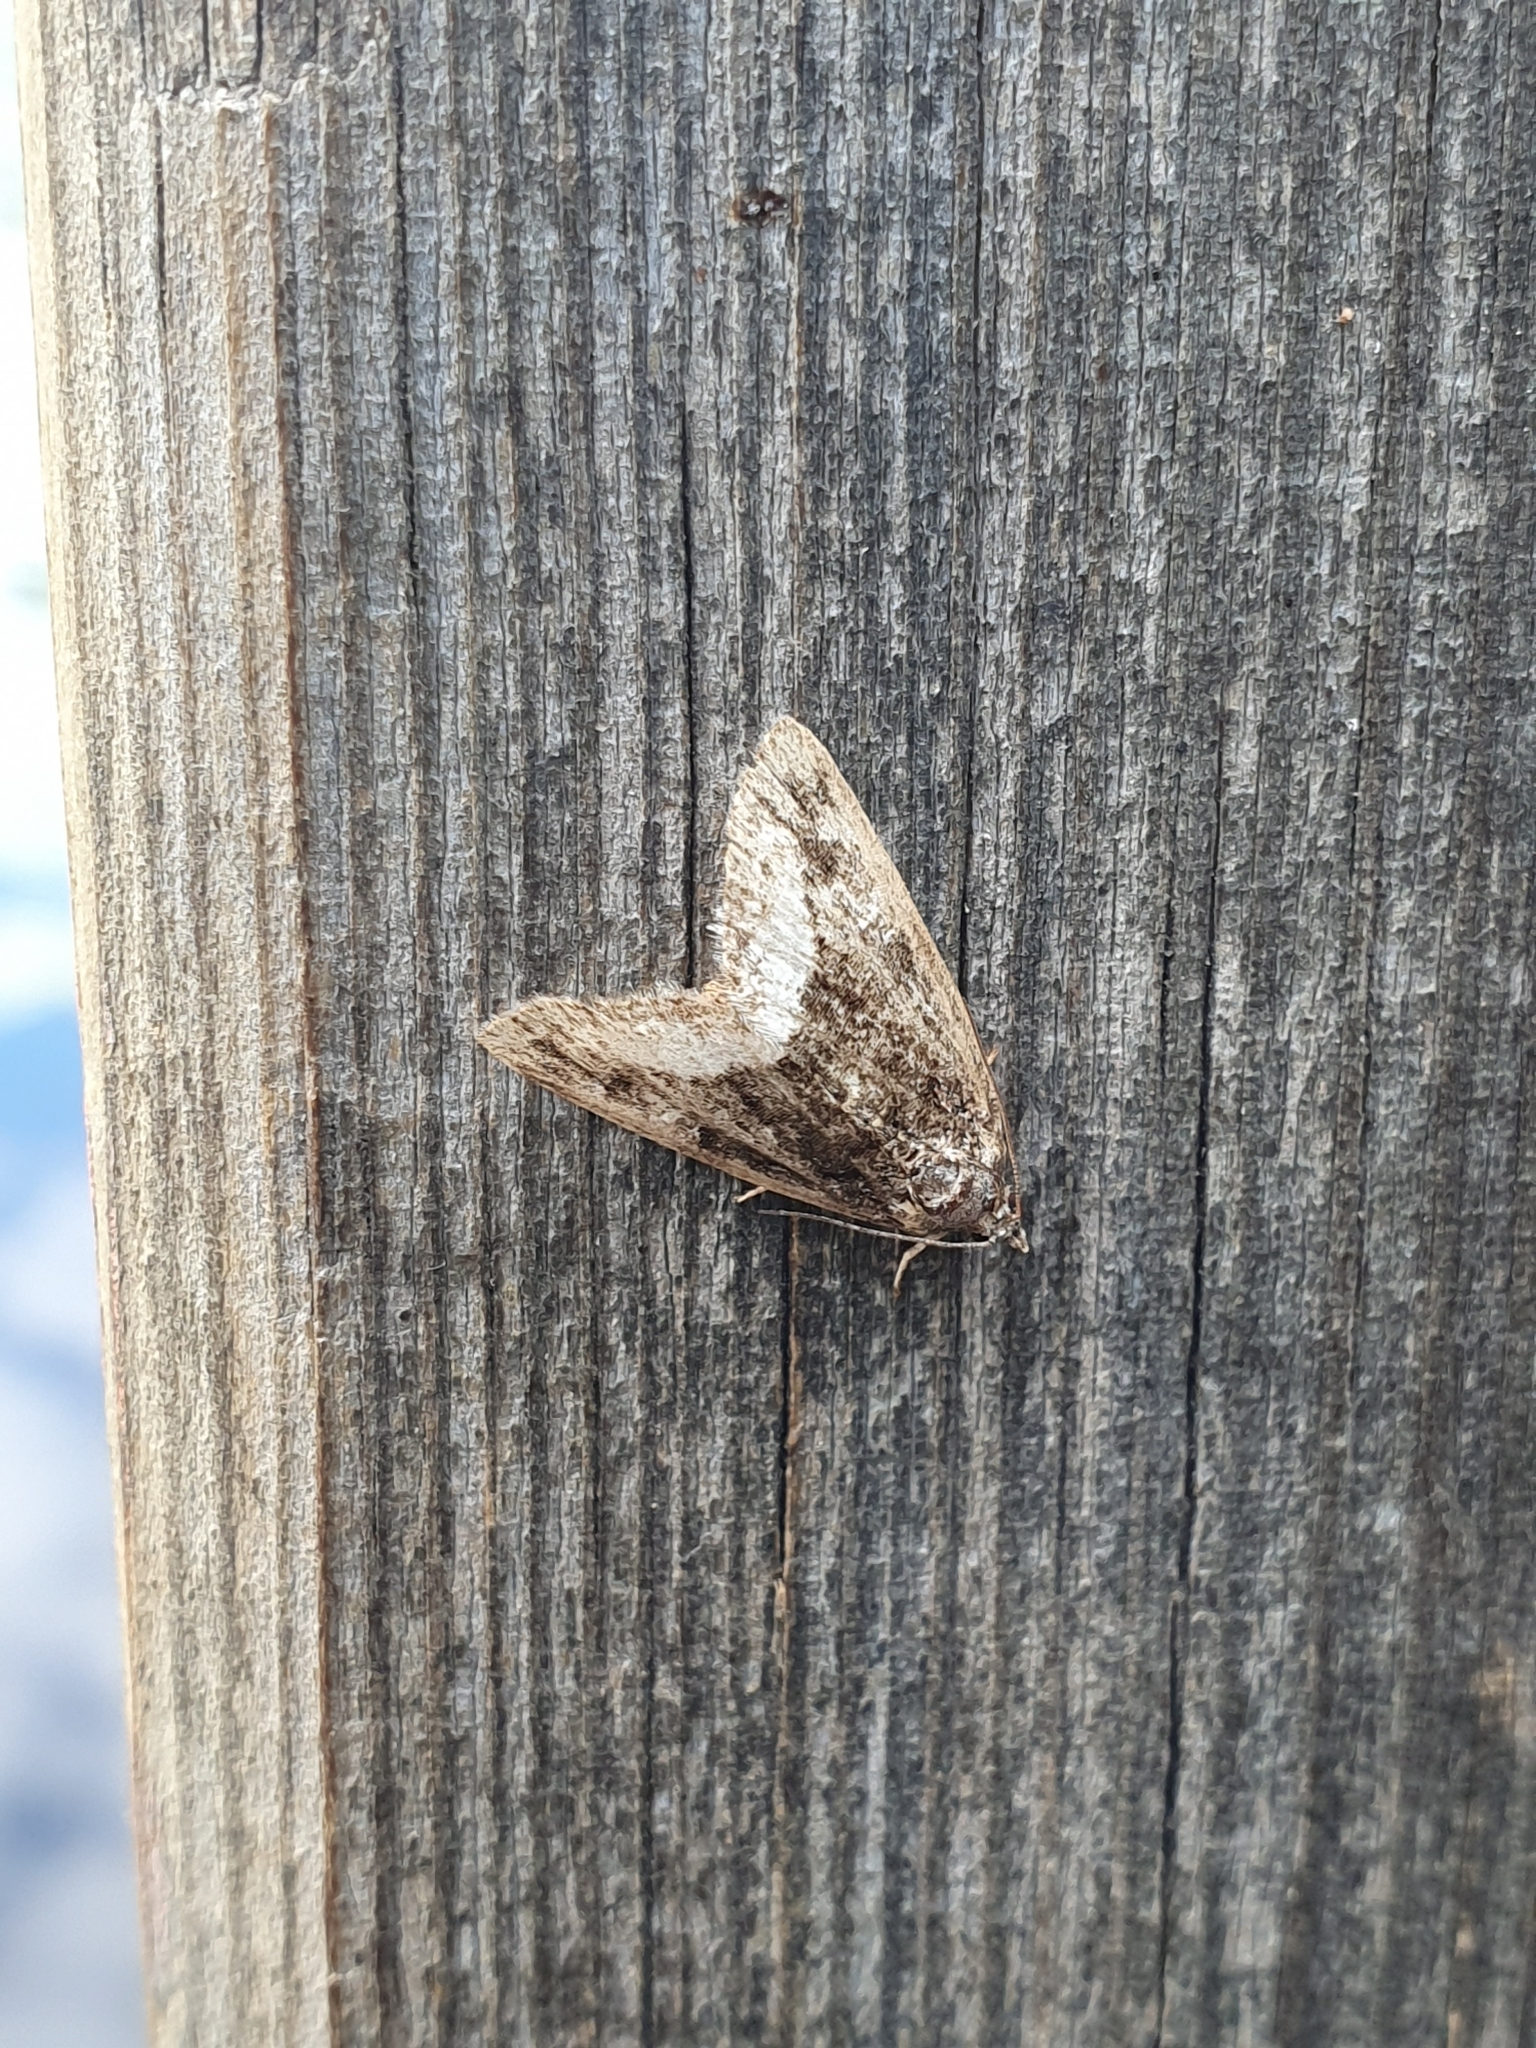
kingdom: Animalia
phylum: Arthropoda
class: Insecta
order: Lepidoptera
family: Noctuidae
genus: Deltote
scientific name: Deltote pygarga
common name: Marbled white spot
